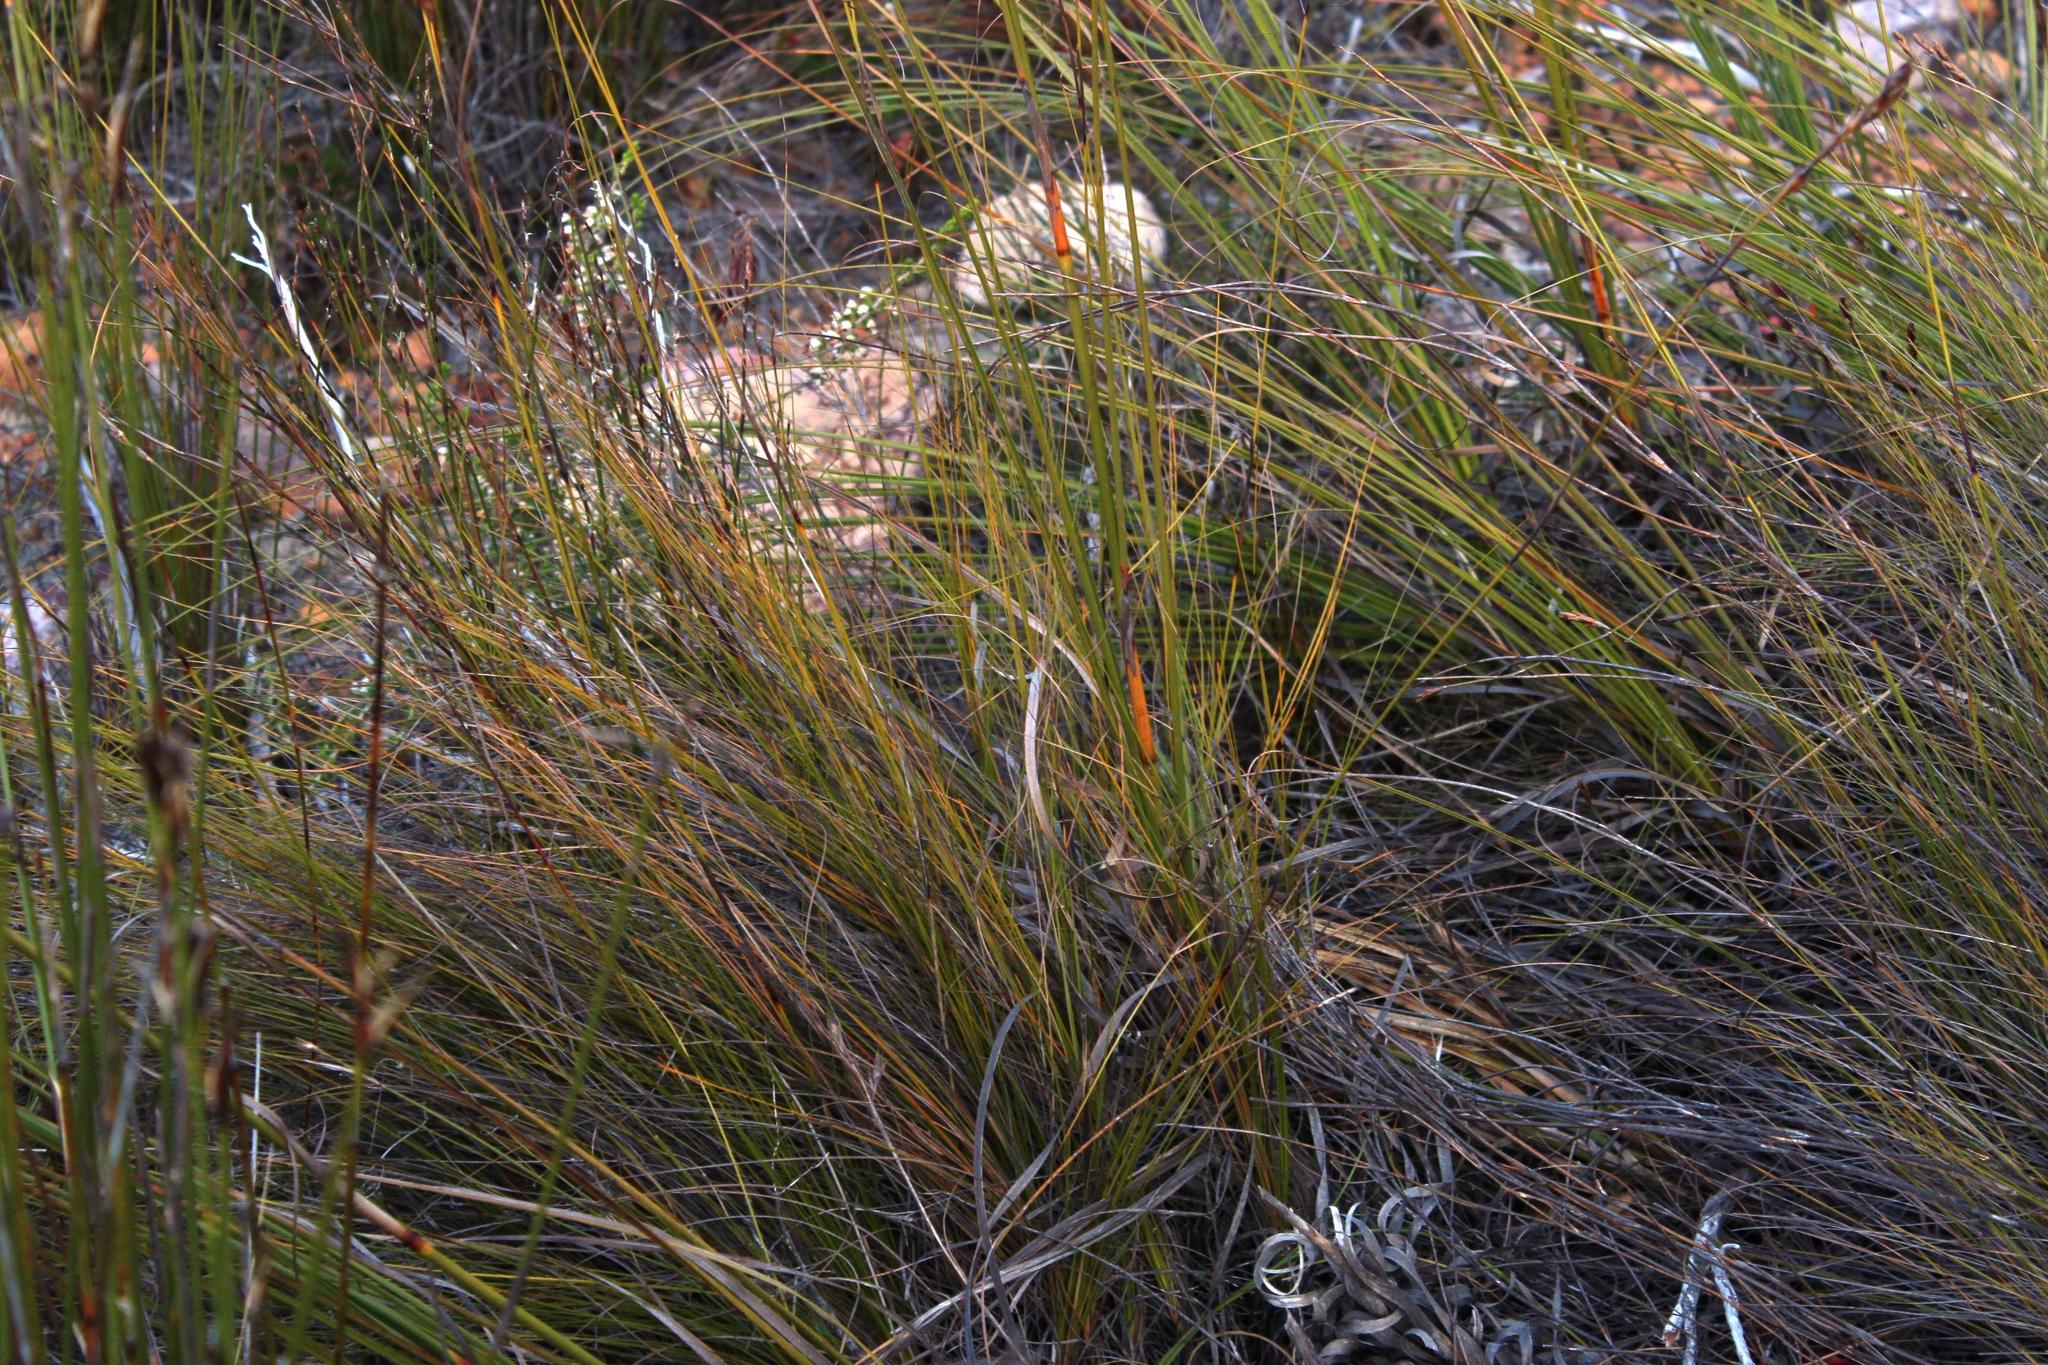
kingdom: Plantae
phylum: Tracheophyta
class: Liliopsida
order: Poales
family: Cyperaceae
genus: Tetraria
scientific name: Tetraria bromoides
